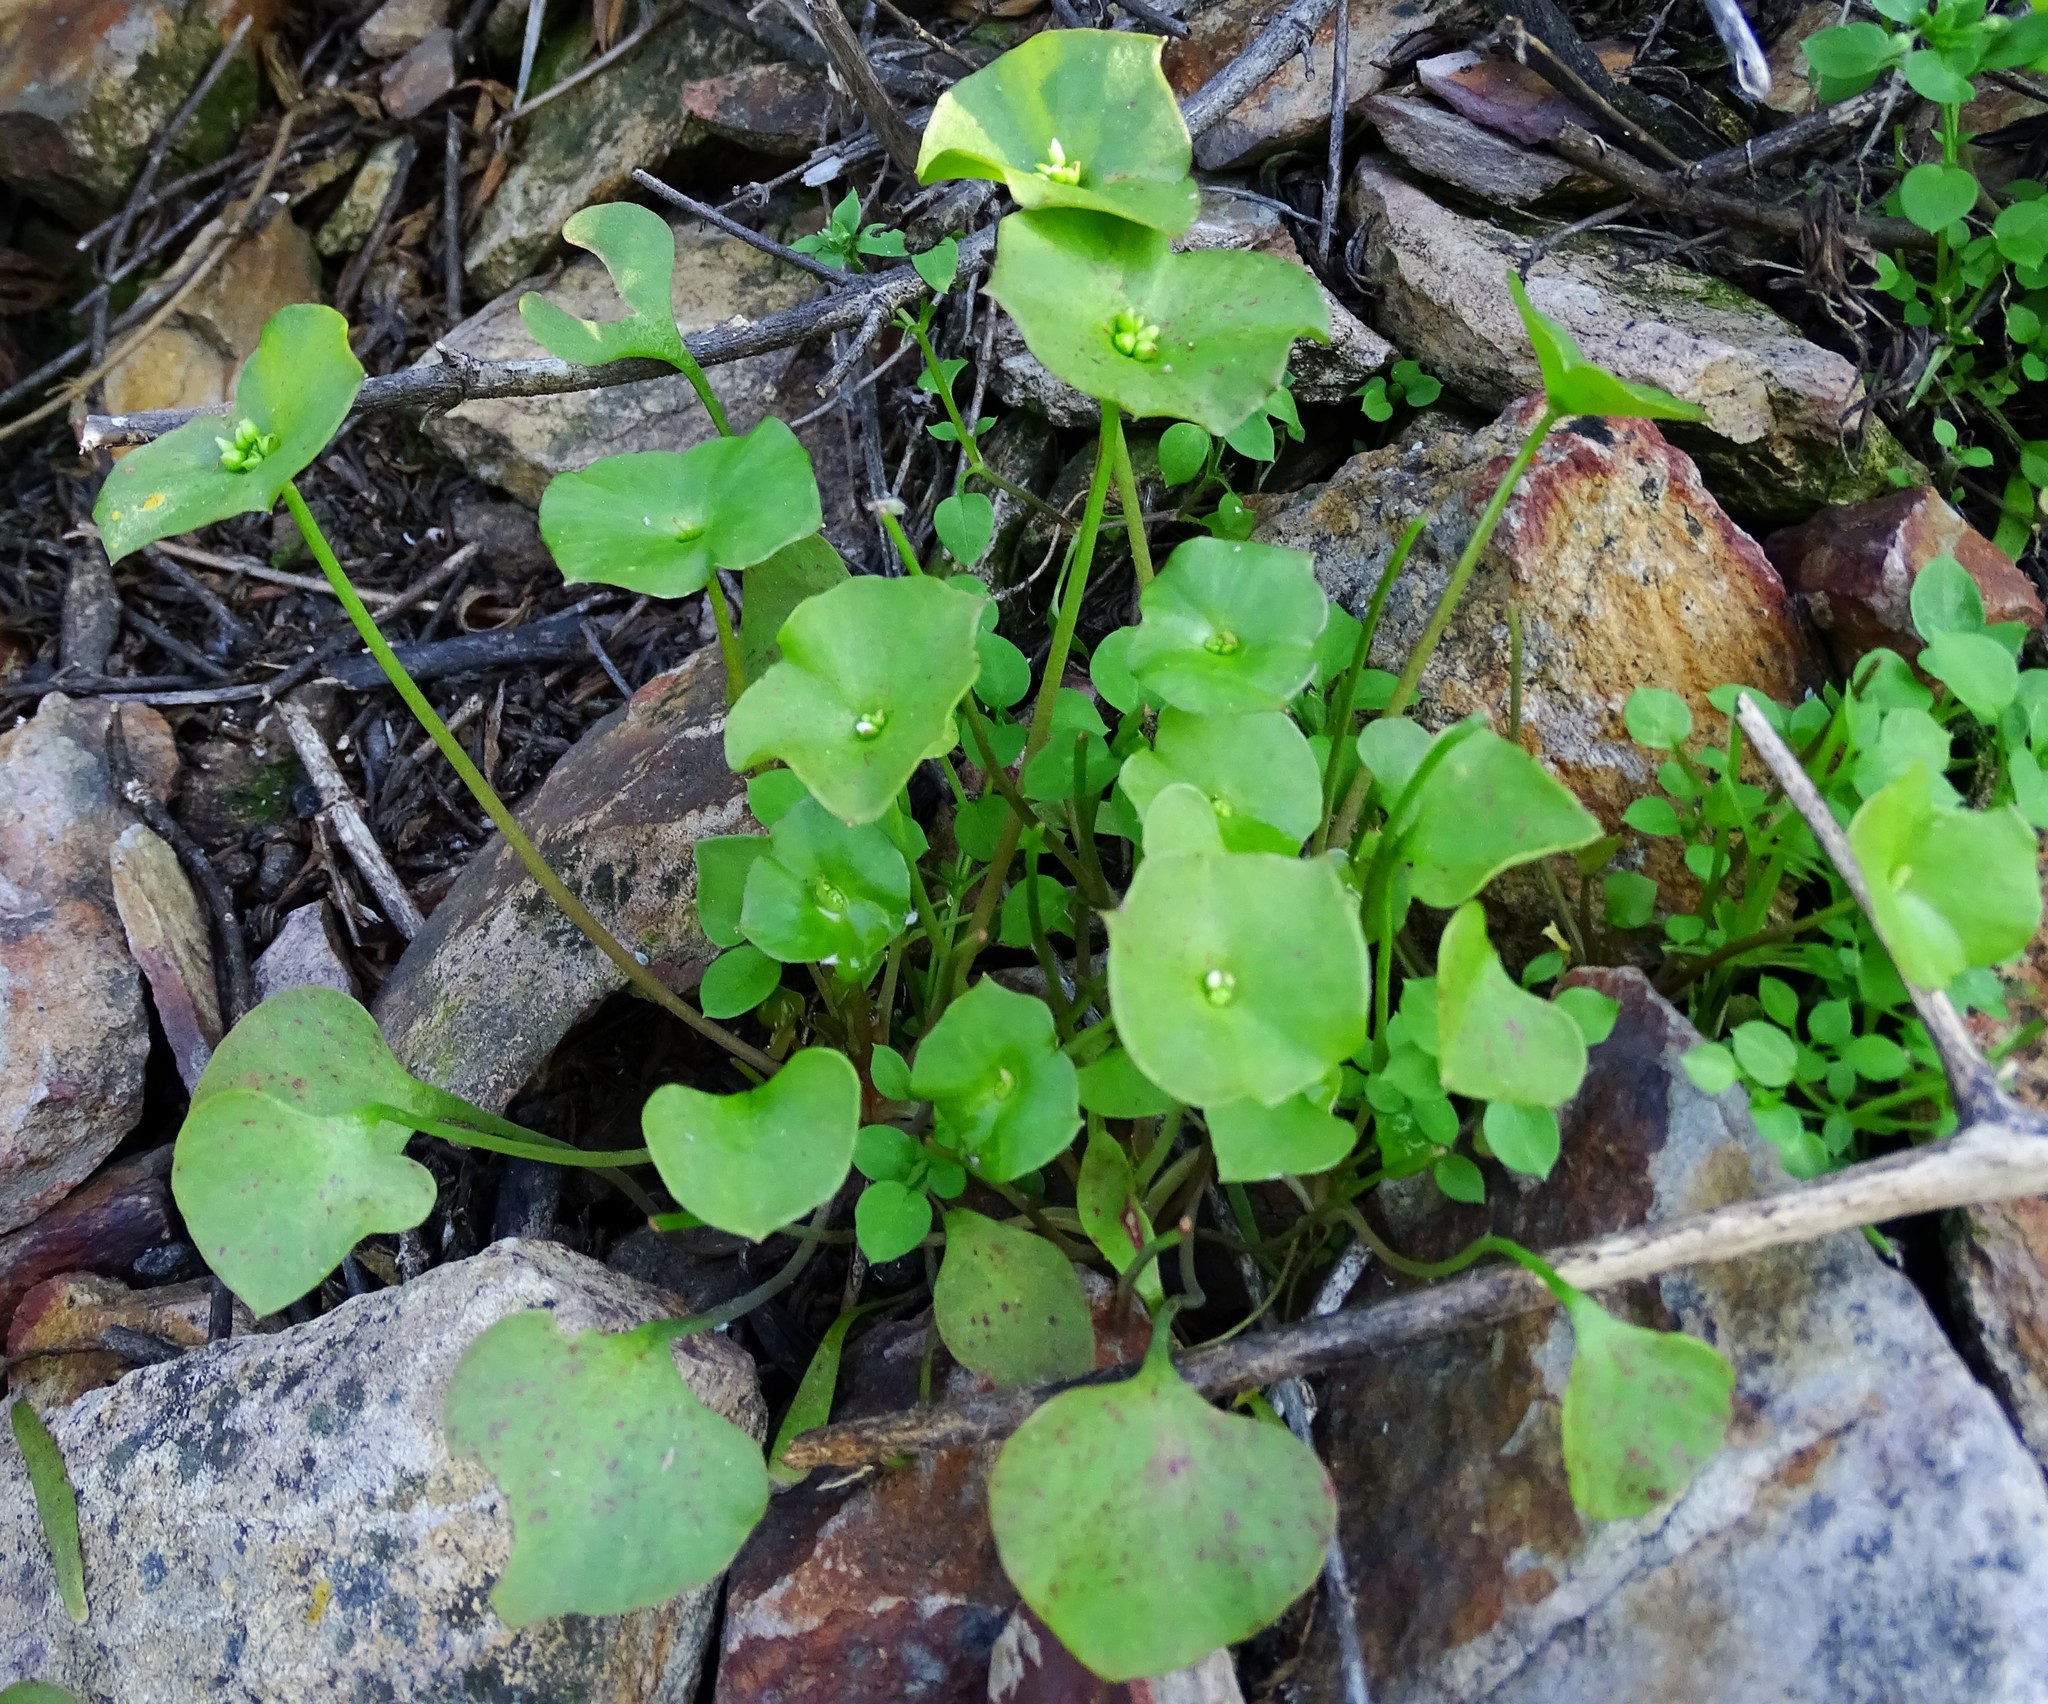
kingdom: Plantae
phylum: Tracheophyta
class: Magnoliopsida
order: Caryophyllales
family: Montiaceae
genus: Claytonia
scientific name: Claytonia perfoliata
